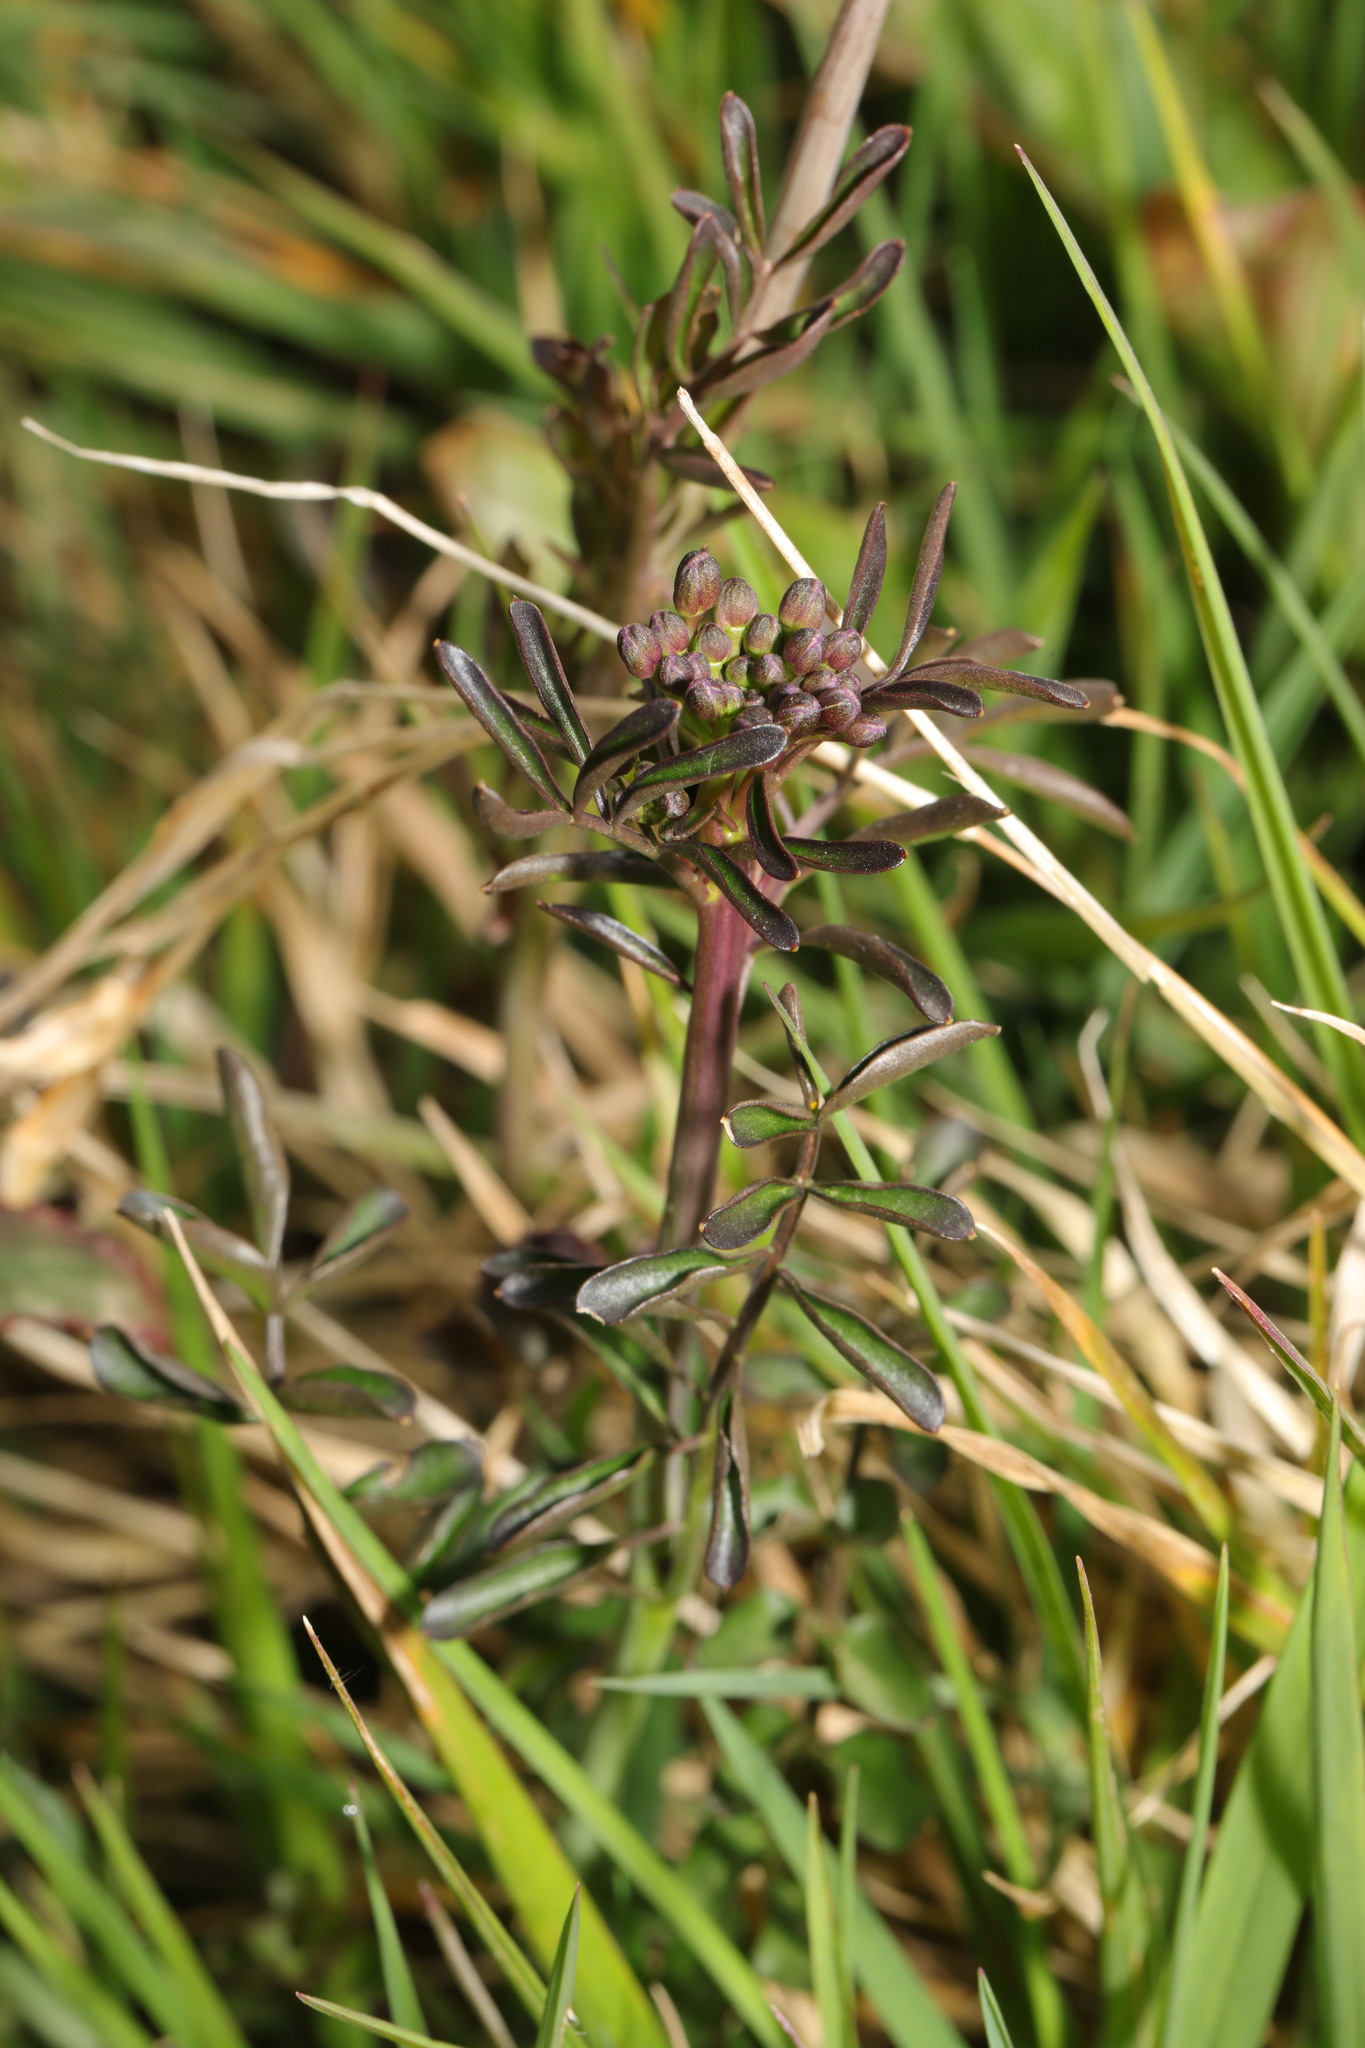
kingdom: Plantae
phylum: Tracheophyta
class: Magnoliopsida
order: Brassicales
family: Brassicaceae
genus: Cardamine
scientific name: Cardamine pratensis
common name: Cuckoo flower
